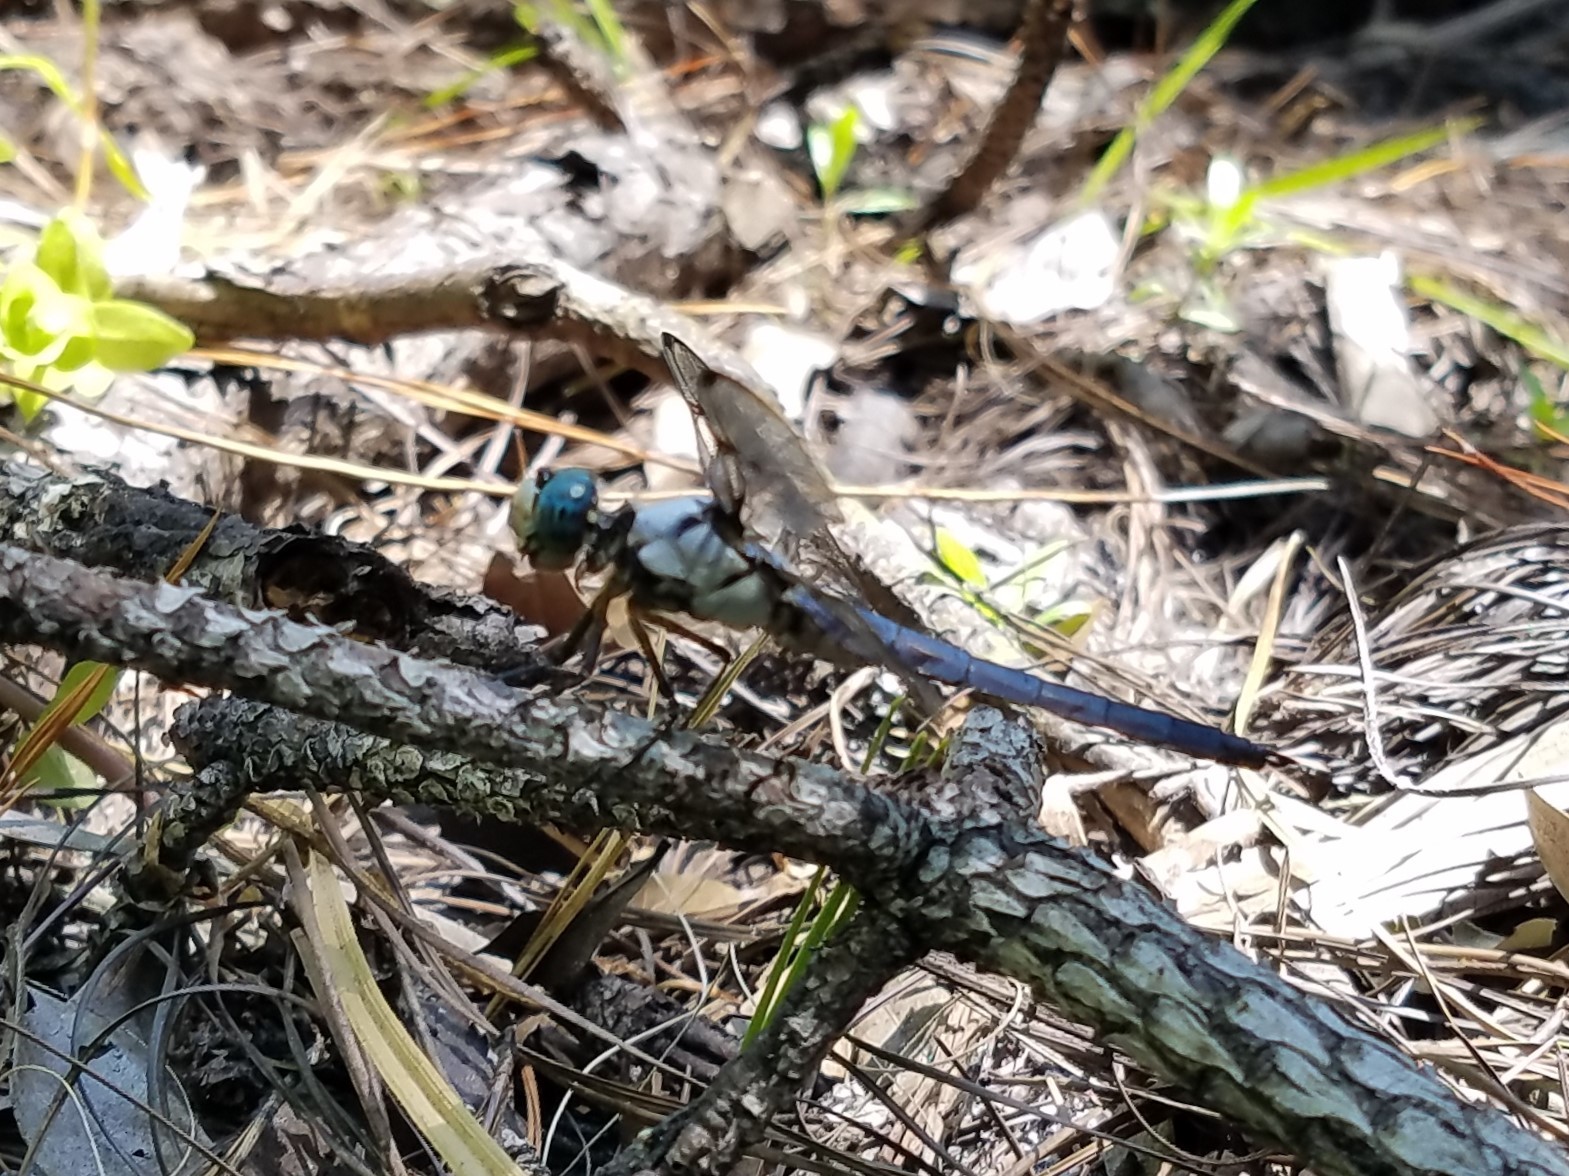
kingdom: Animalia
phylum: Arthropoda
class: Insecta
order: Odonata
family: Libellulidae
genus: Libellula
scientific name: Libellula vibrans
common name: Great blue skimmer
